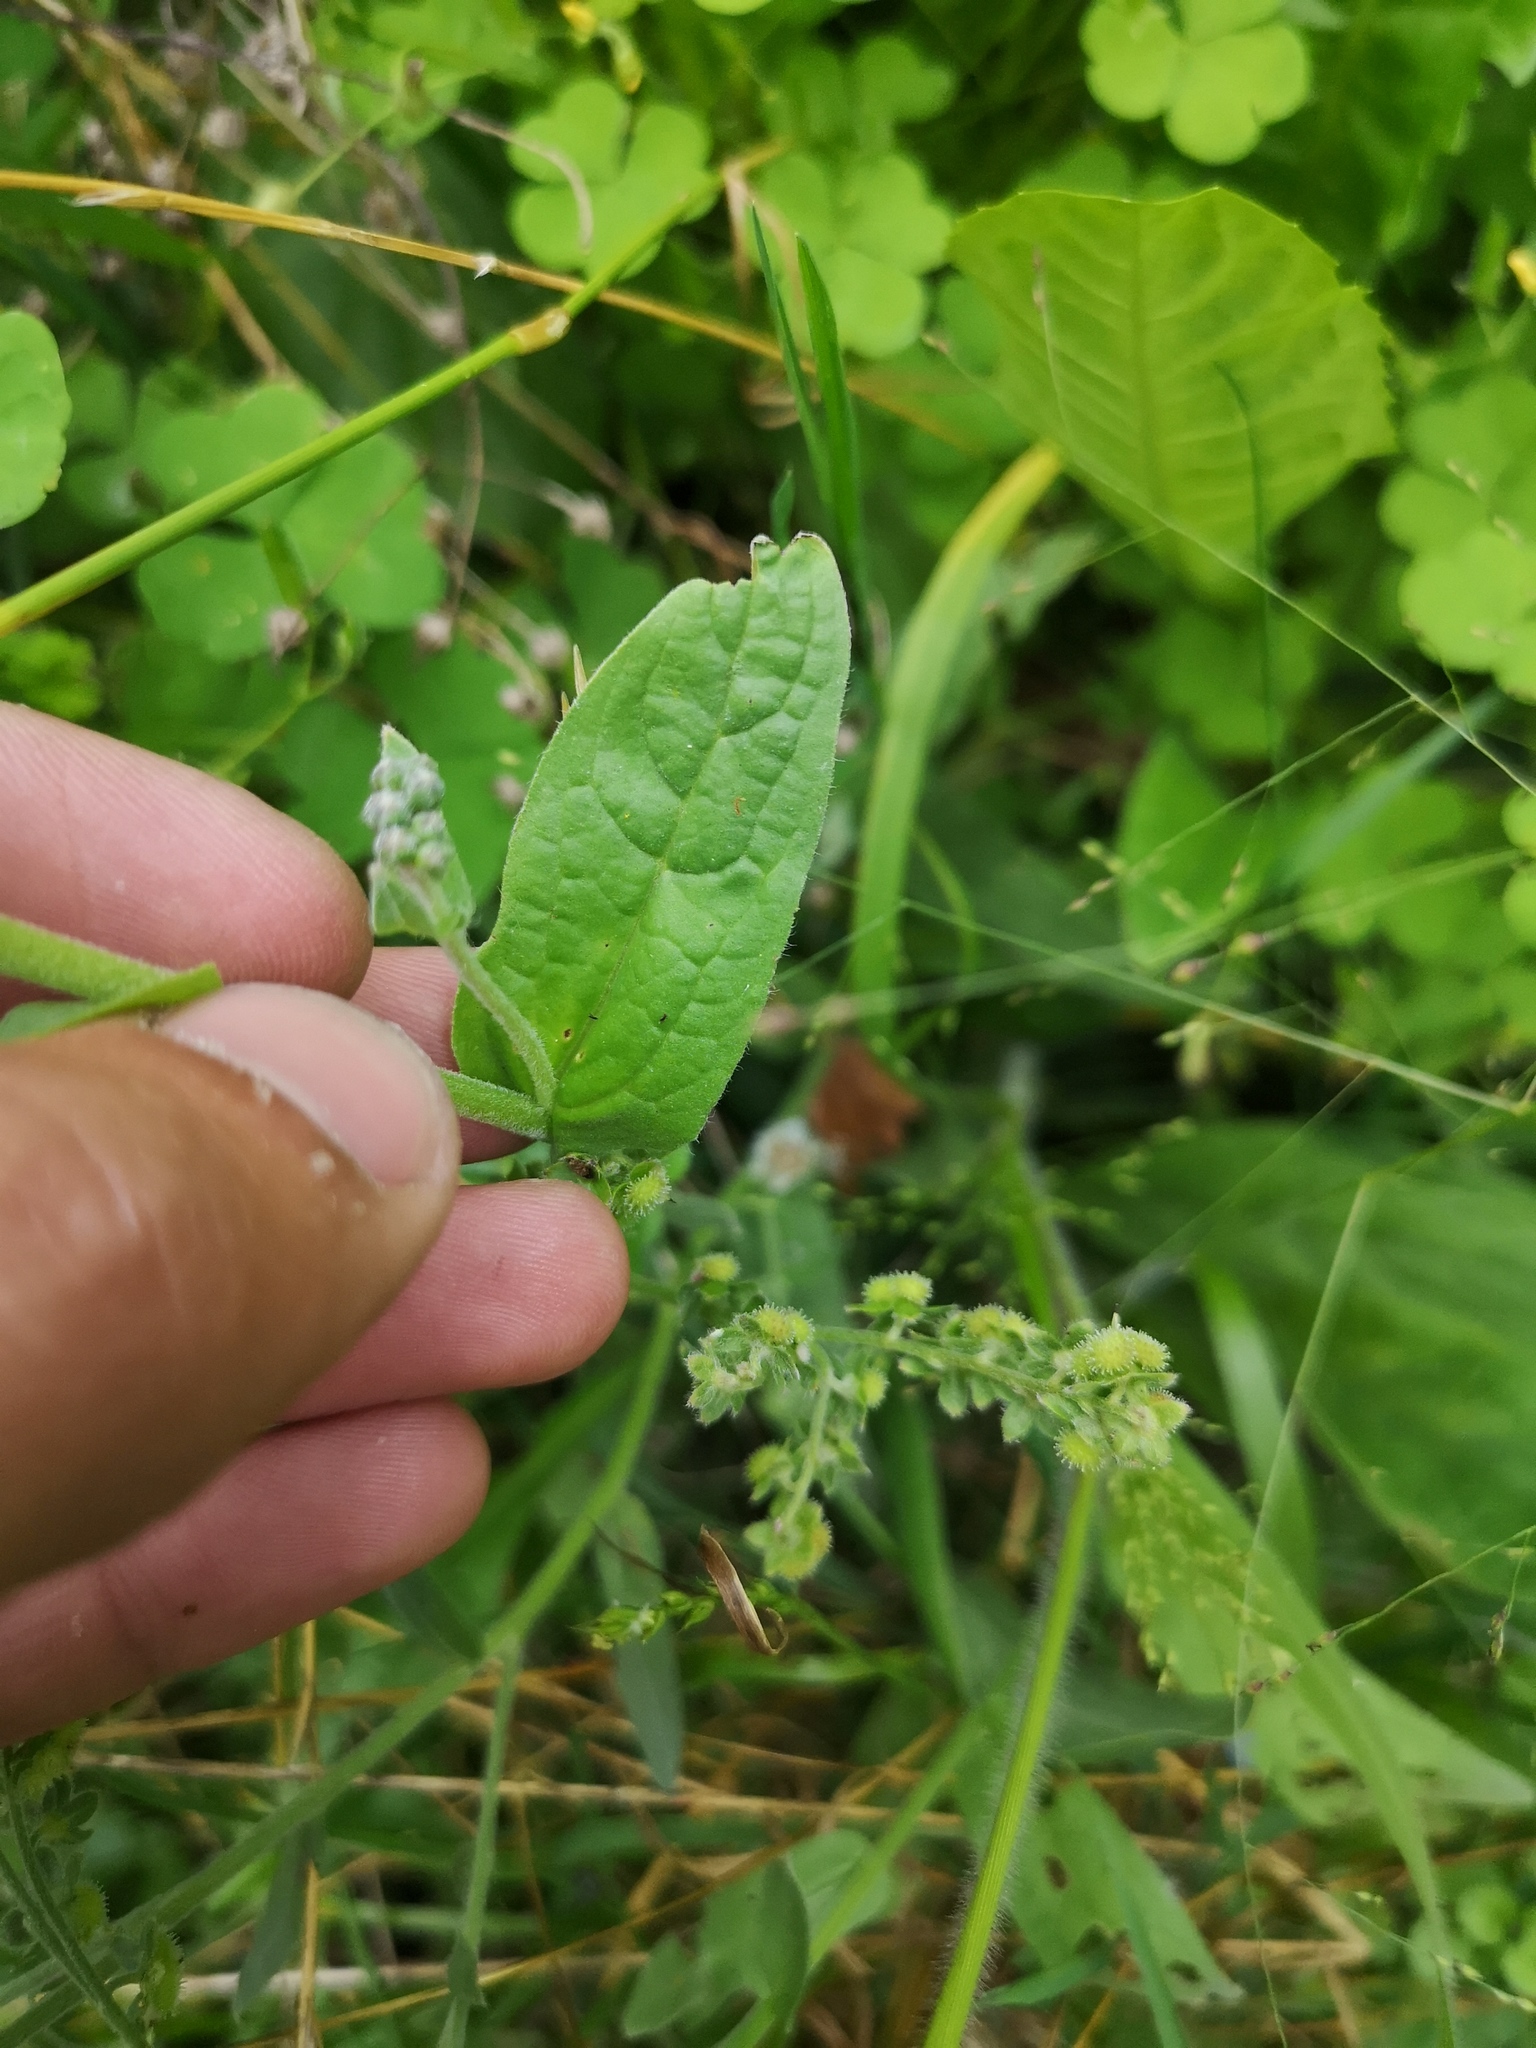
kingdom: Plantae
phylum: Tracheophyta
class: Magnoliopsida
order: Boraginales
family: Boraginaceae
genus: Cynoglossum
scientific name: Cynoglossum amabile
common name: Chinese hound's tongue
